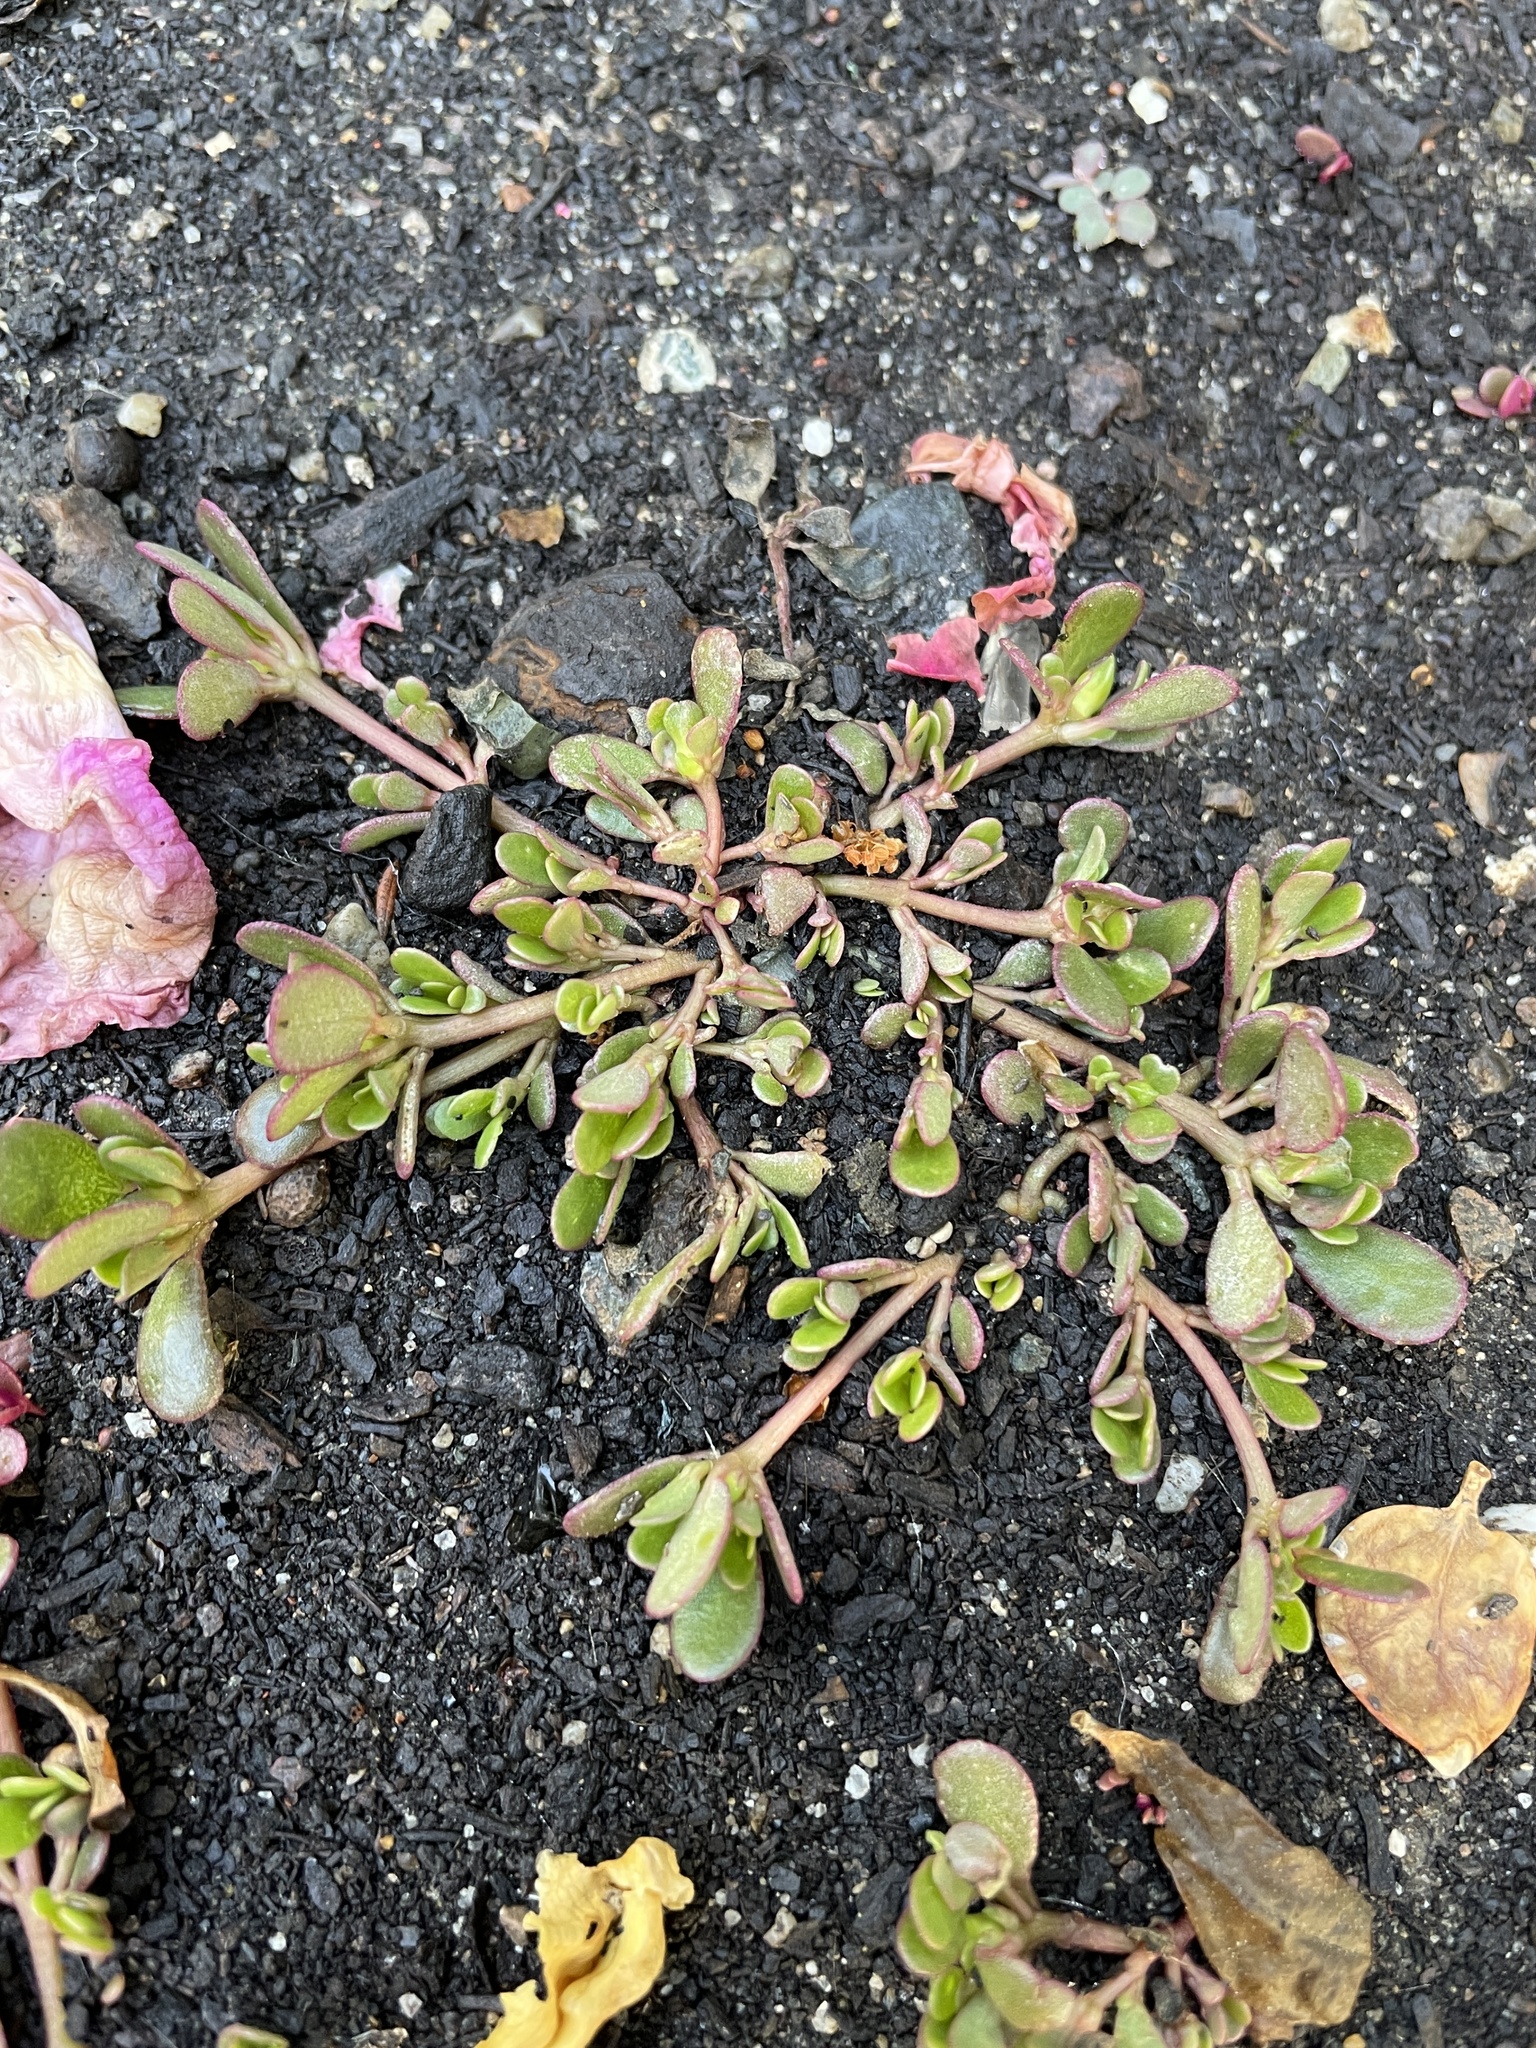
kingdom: Plantae
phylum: Tracheophyta
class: Magnoliopsida
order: Caryophyllales
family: Portulacaceae
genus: Portulaca
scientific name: Portulaca oleracea
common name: Common purslane
